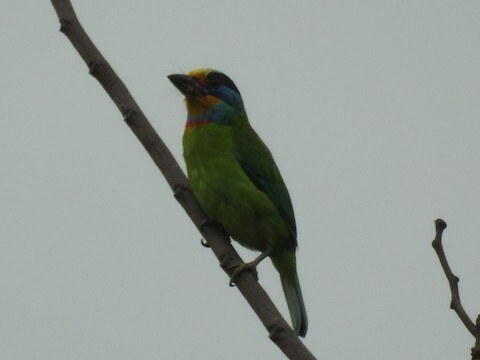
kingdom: Animalia
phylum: Chordata
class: Aves
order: Piciformes
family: Megalaimidae
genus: Psilopogon
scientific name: Psilopogon nuchalis
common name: Taiwan barbet
